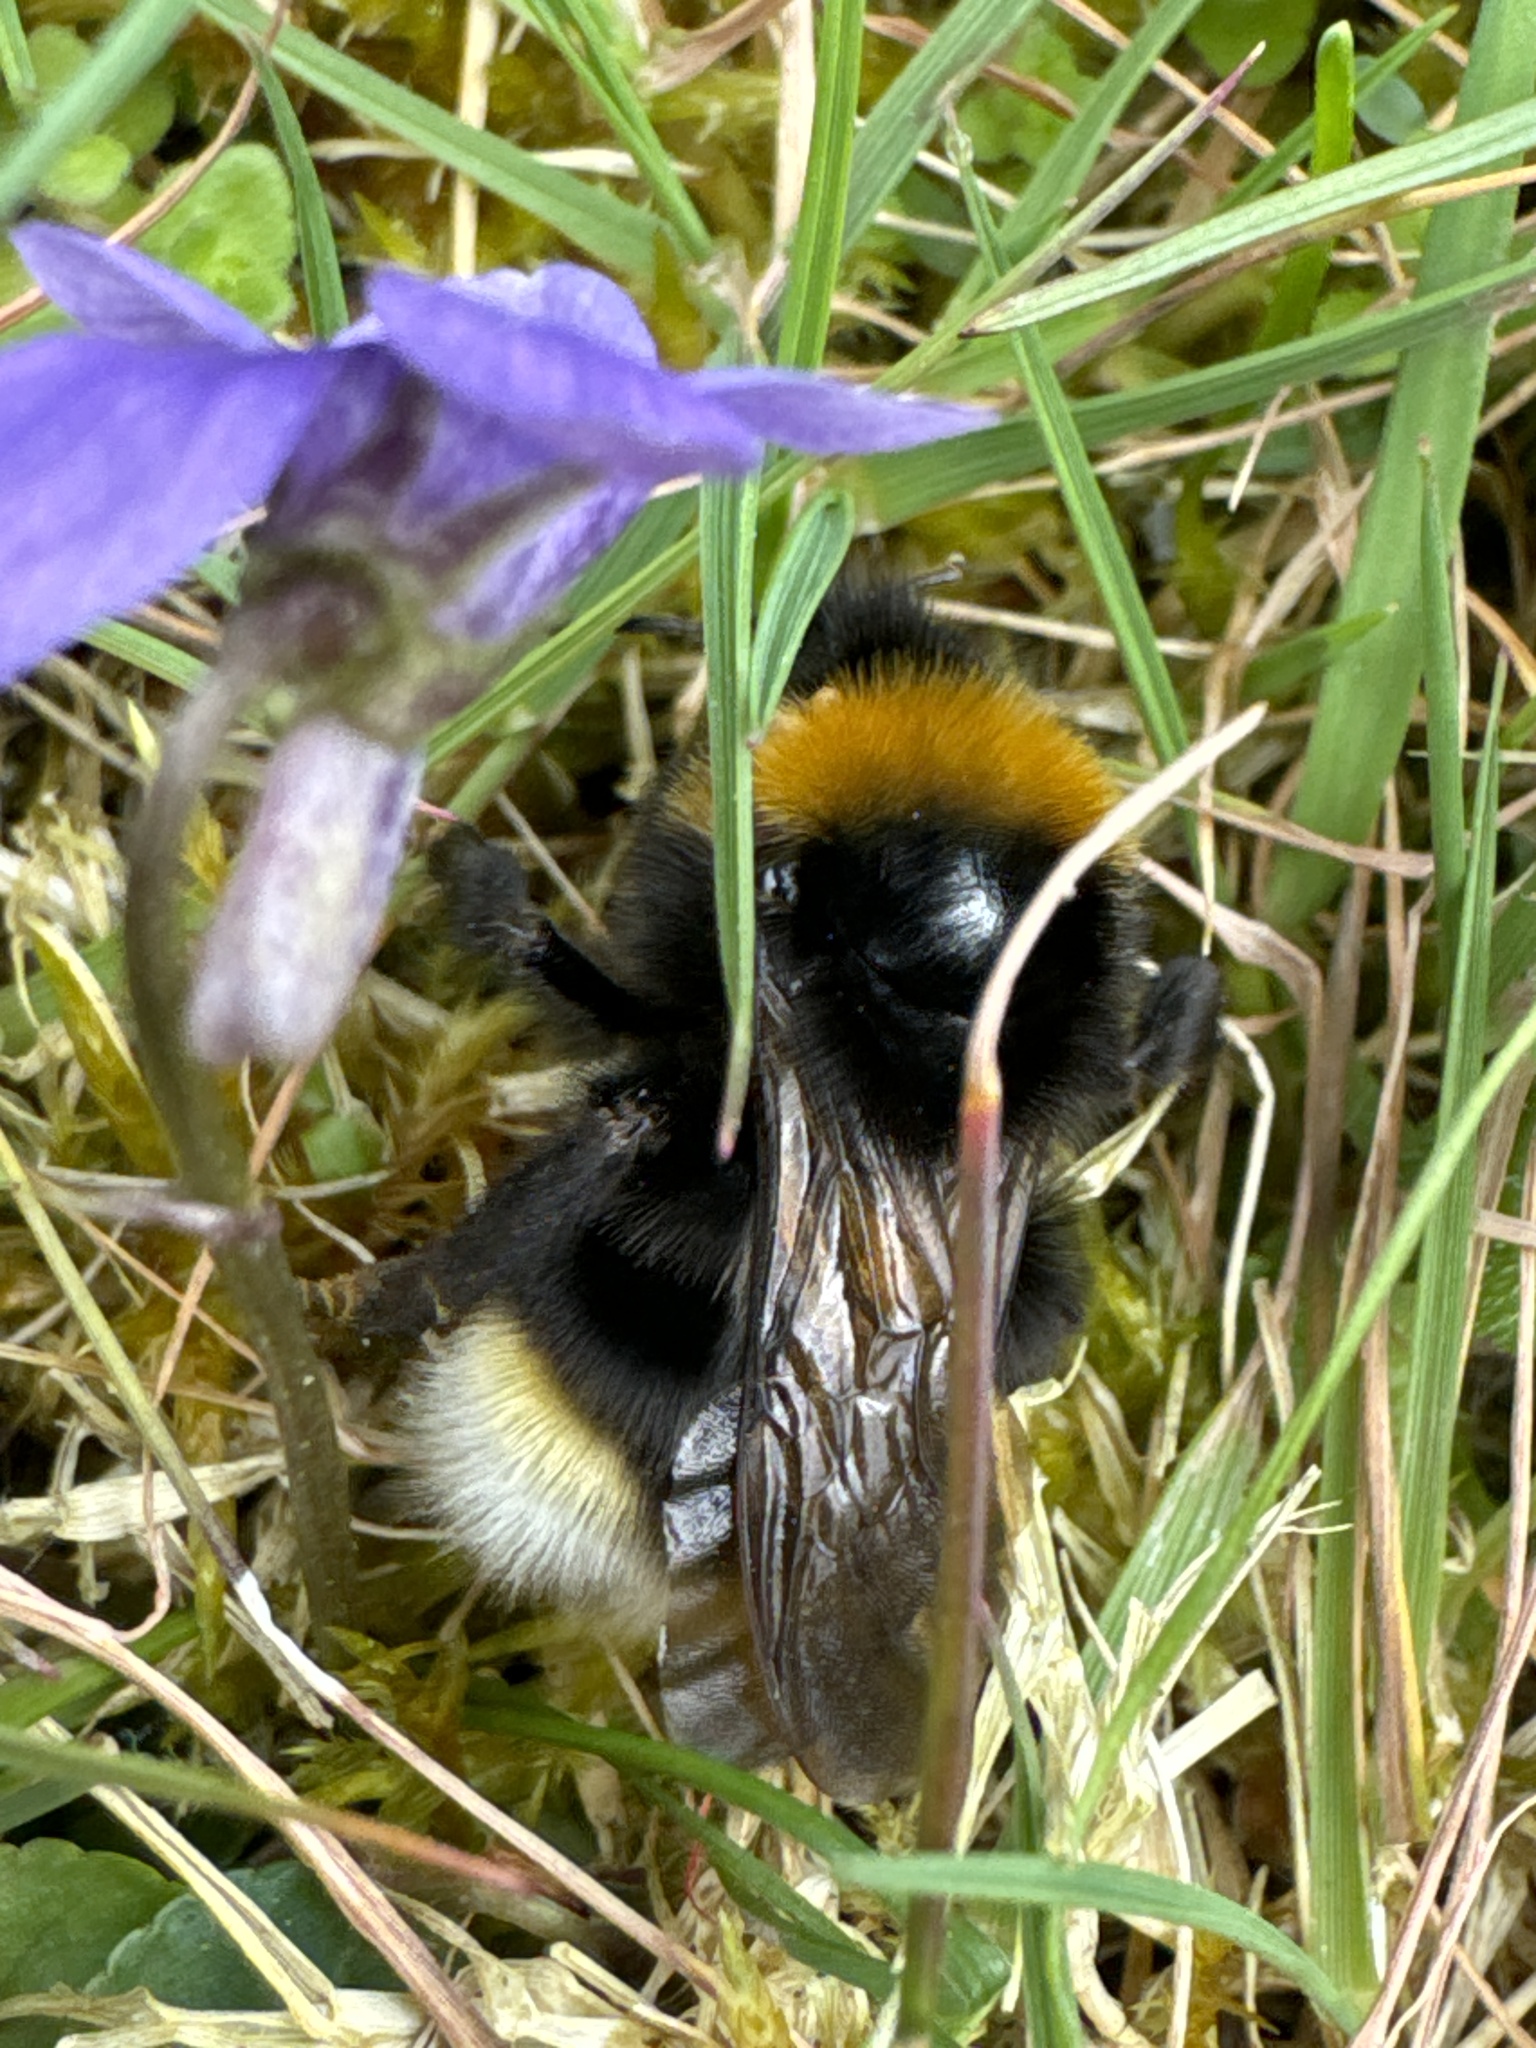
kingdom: Animalia
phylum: Arthropoda
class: Insecta
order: Hymenoptera
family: Apidae
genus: Bombus
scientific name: Bombus vestalis
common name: Vestal cuckoo bee
